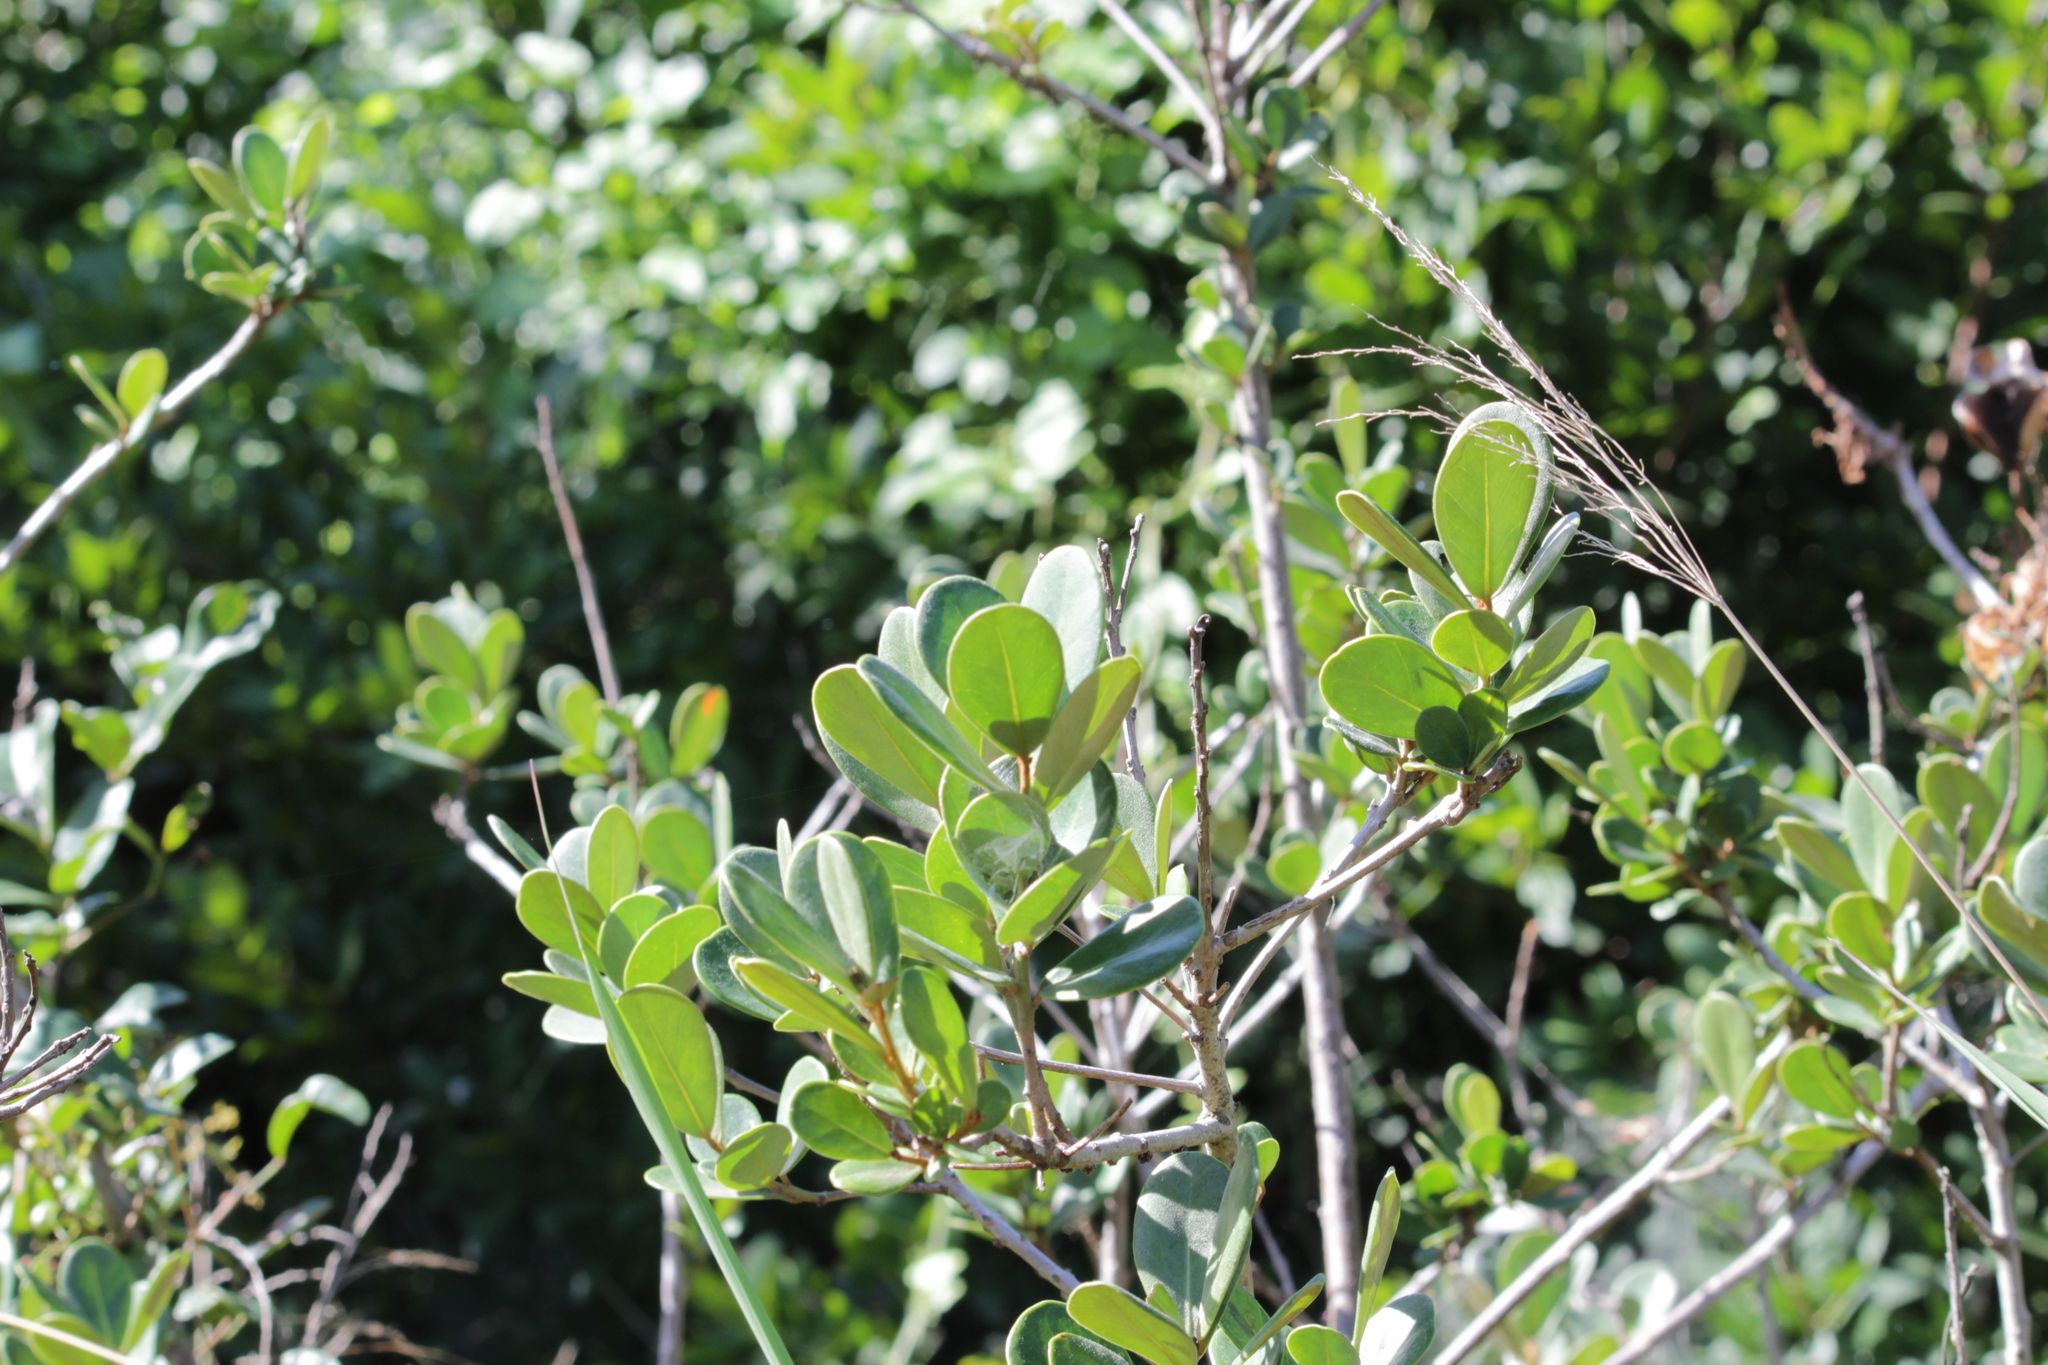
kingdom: Plantae
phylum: Tracheophyta
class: Magnoliopsida
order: Ericales
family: Sapotaceae
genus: Mimusops
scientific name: Mimusops caffra
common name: Coastal red milkwood
